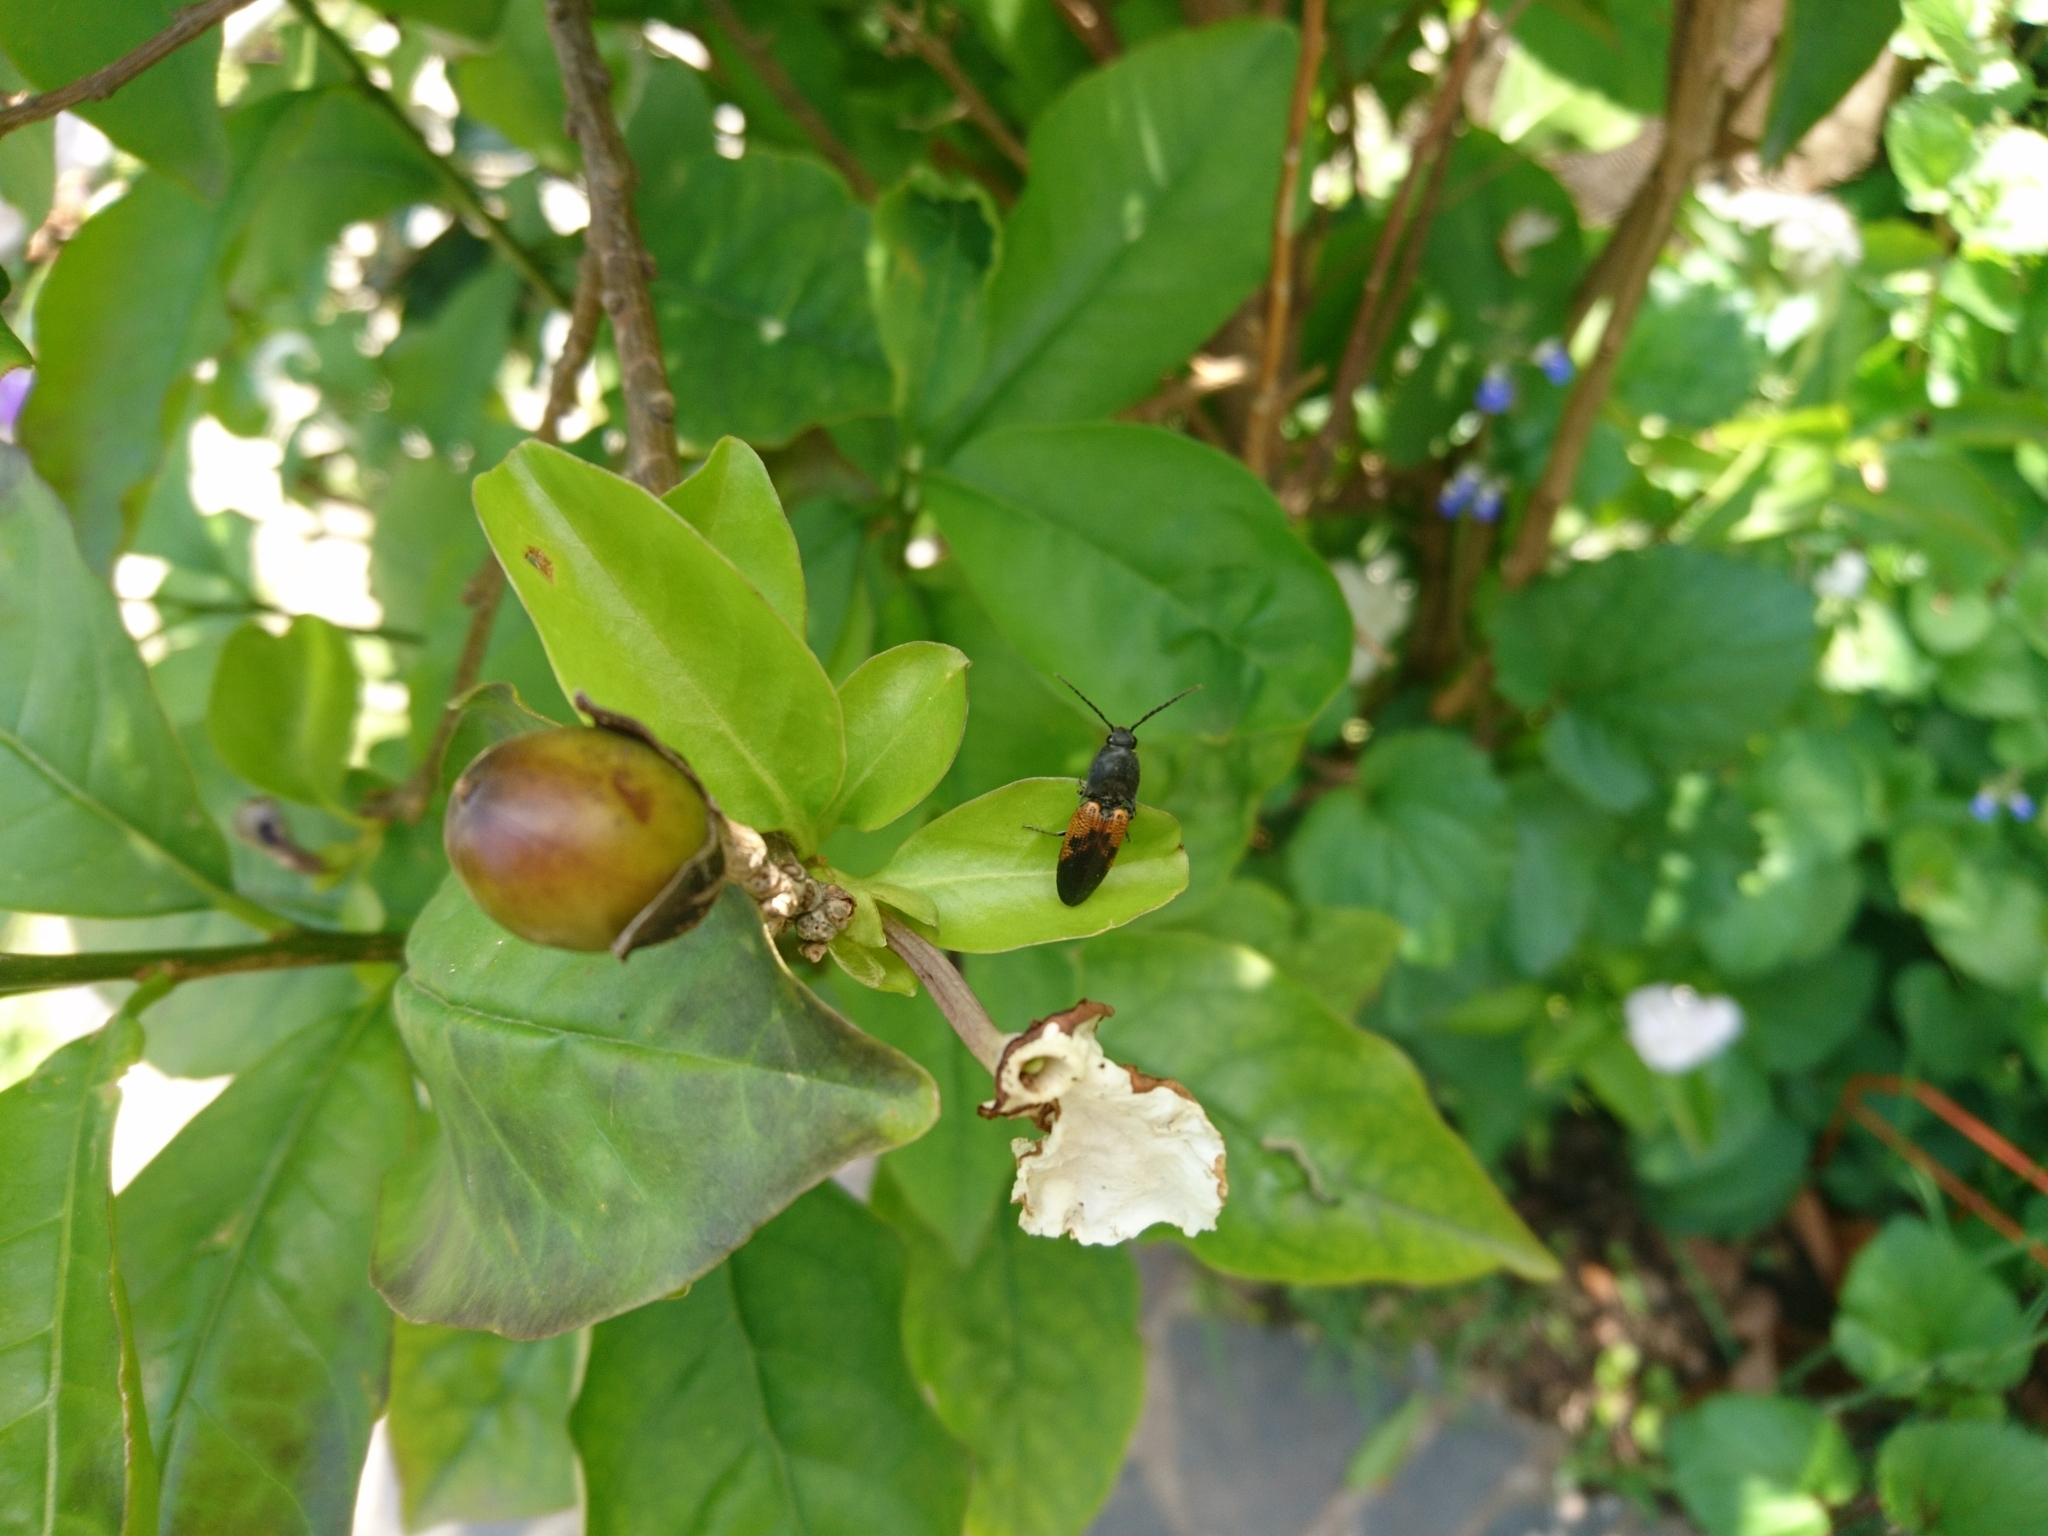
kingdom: Animalia
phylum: Arthropoda
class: Insecta
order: Coleoptera
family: Elateridae
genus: Monocrepidius
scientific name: Monocrepidius
